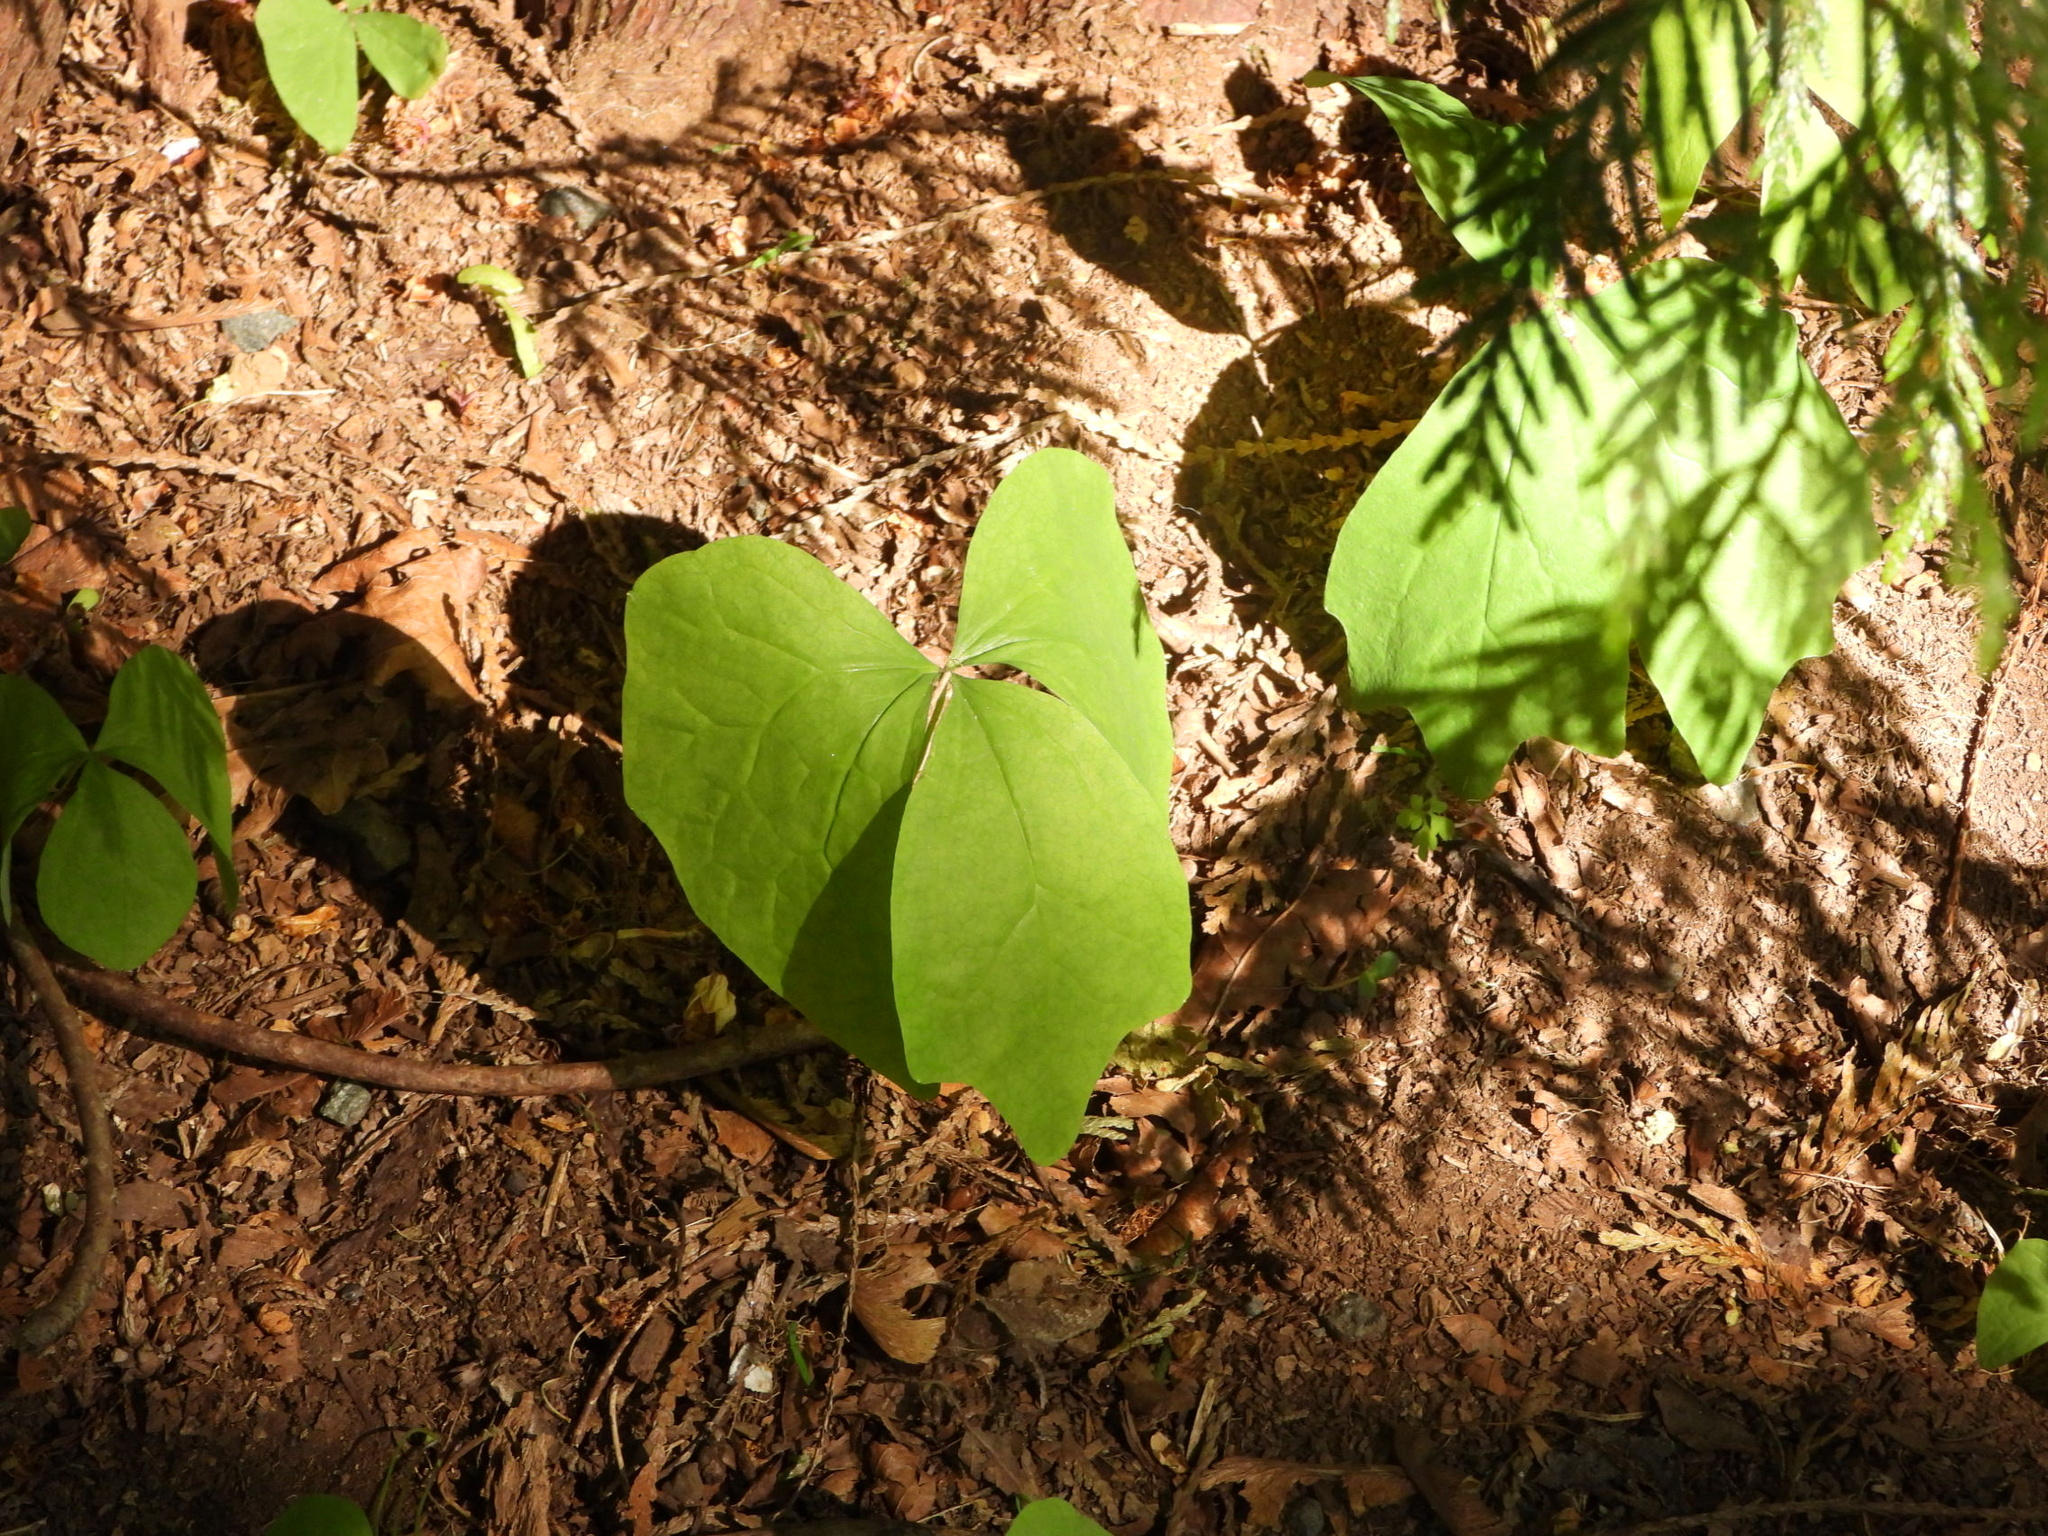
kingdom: Plantae
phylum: Tracheophyta
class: Magnoliopsida
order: Ranunculales
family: Berberidaceae
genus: Achlys
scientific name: Achlys triphylla
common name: Vanilla-leaf
